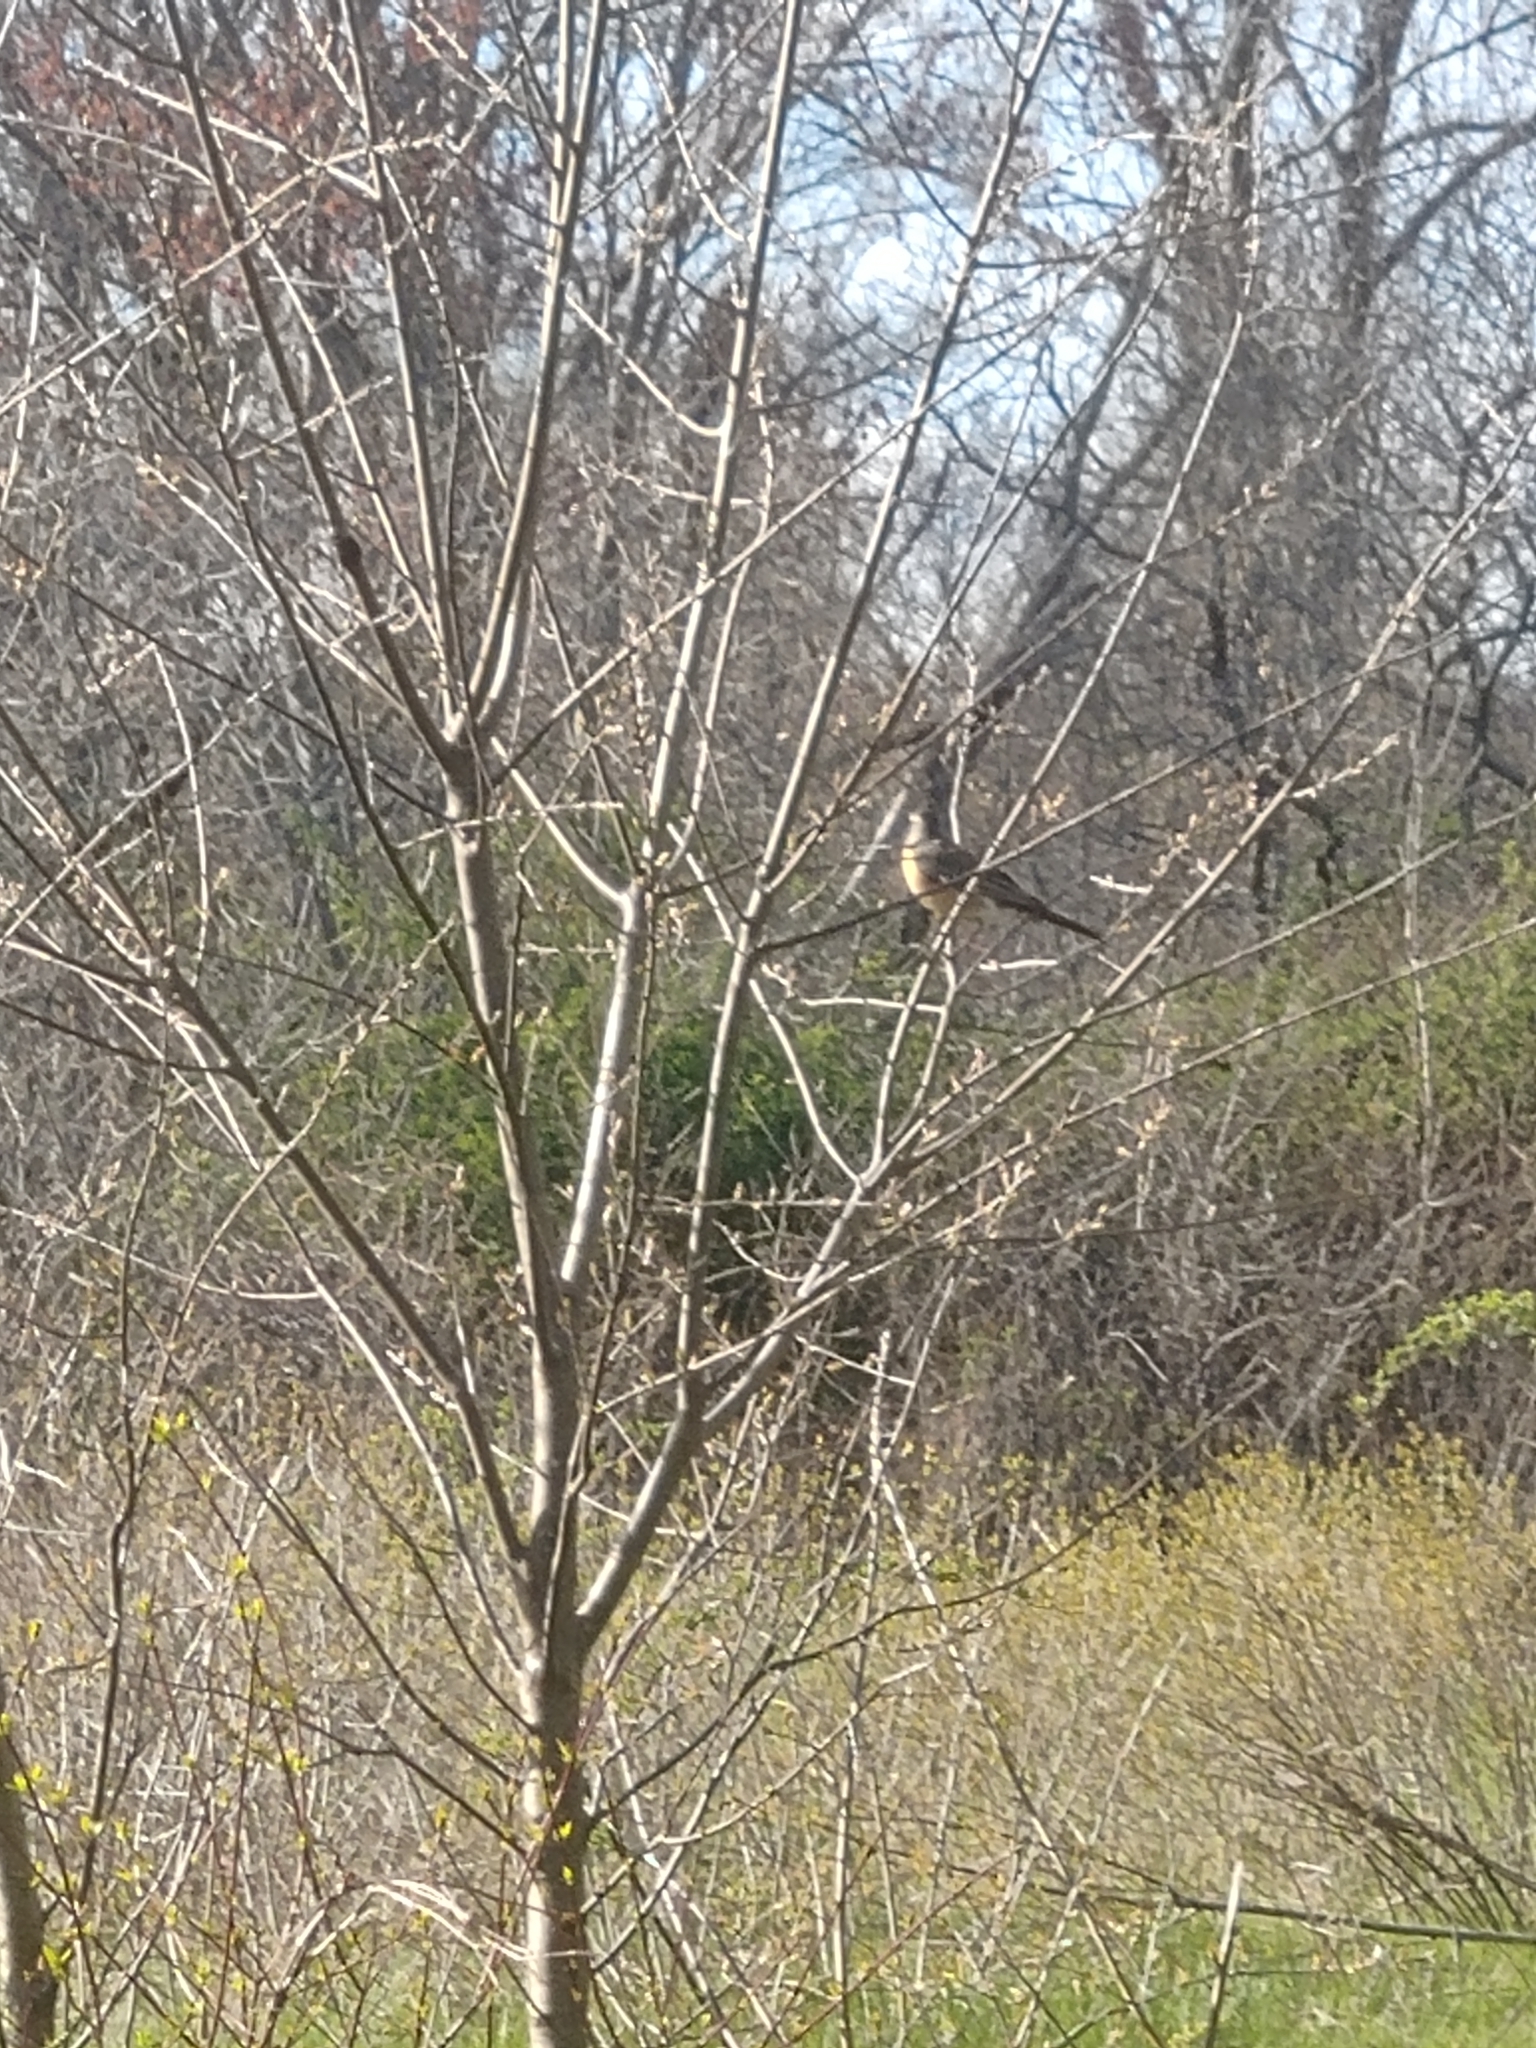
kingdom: Animalia
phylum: Chordata
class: Aves
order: Passeriformes
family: Turdidae
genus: Turdus
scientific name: Turdus migratorius
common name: American robin
